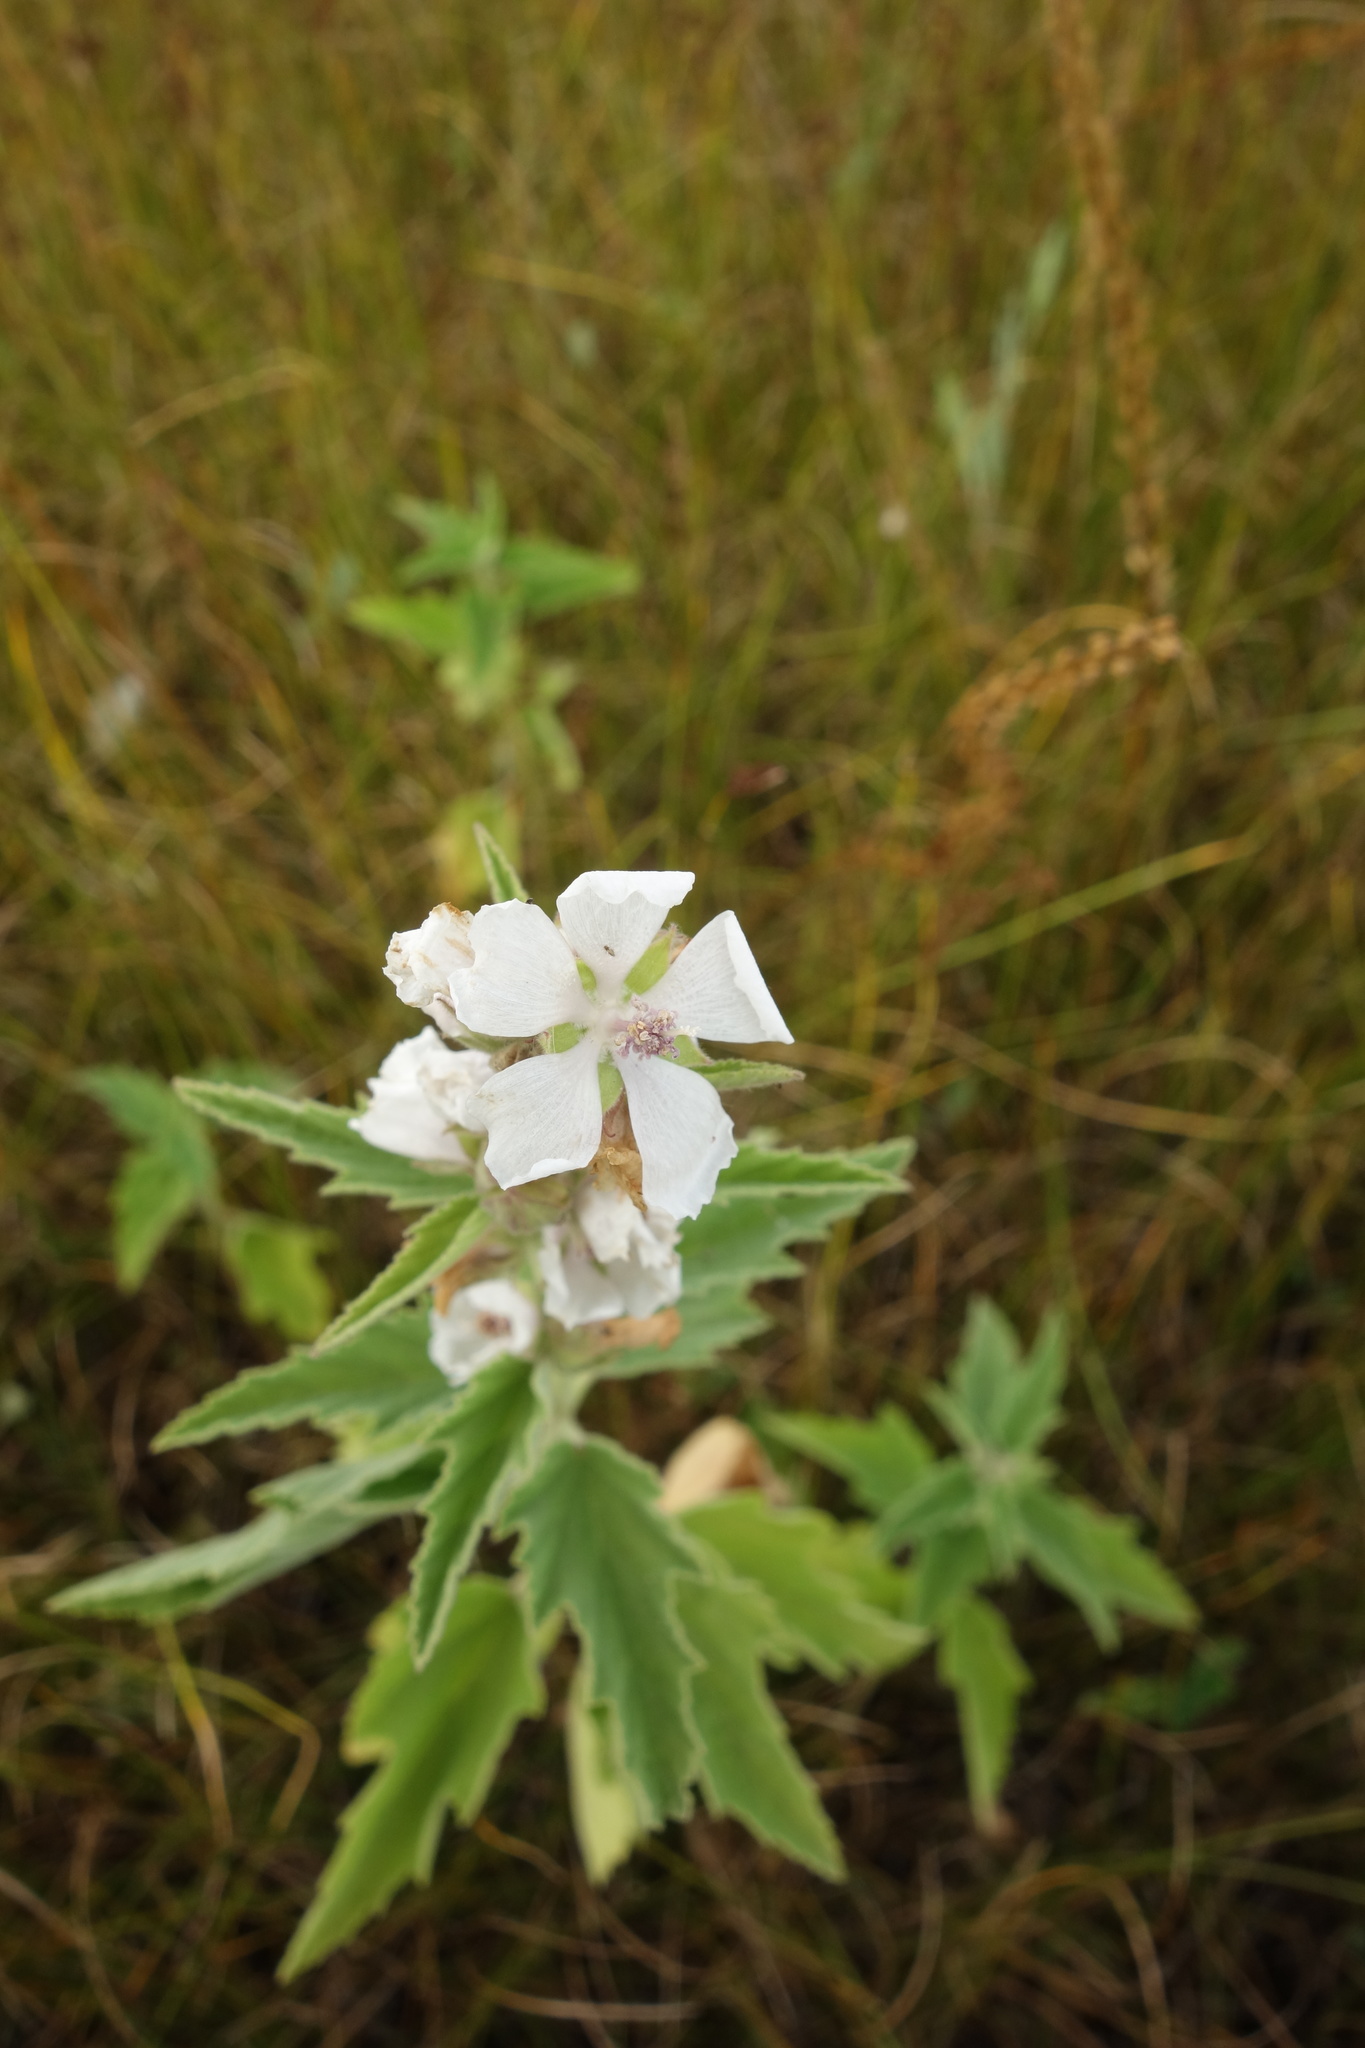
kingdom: Plantae
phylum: Tracheophyta
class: Magnoliopsida
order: Malvales
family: Malvaceae
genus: Althaea
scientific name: Althaea officinalis
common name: Marsh-mallow
